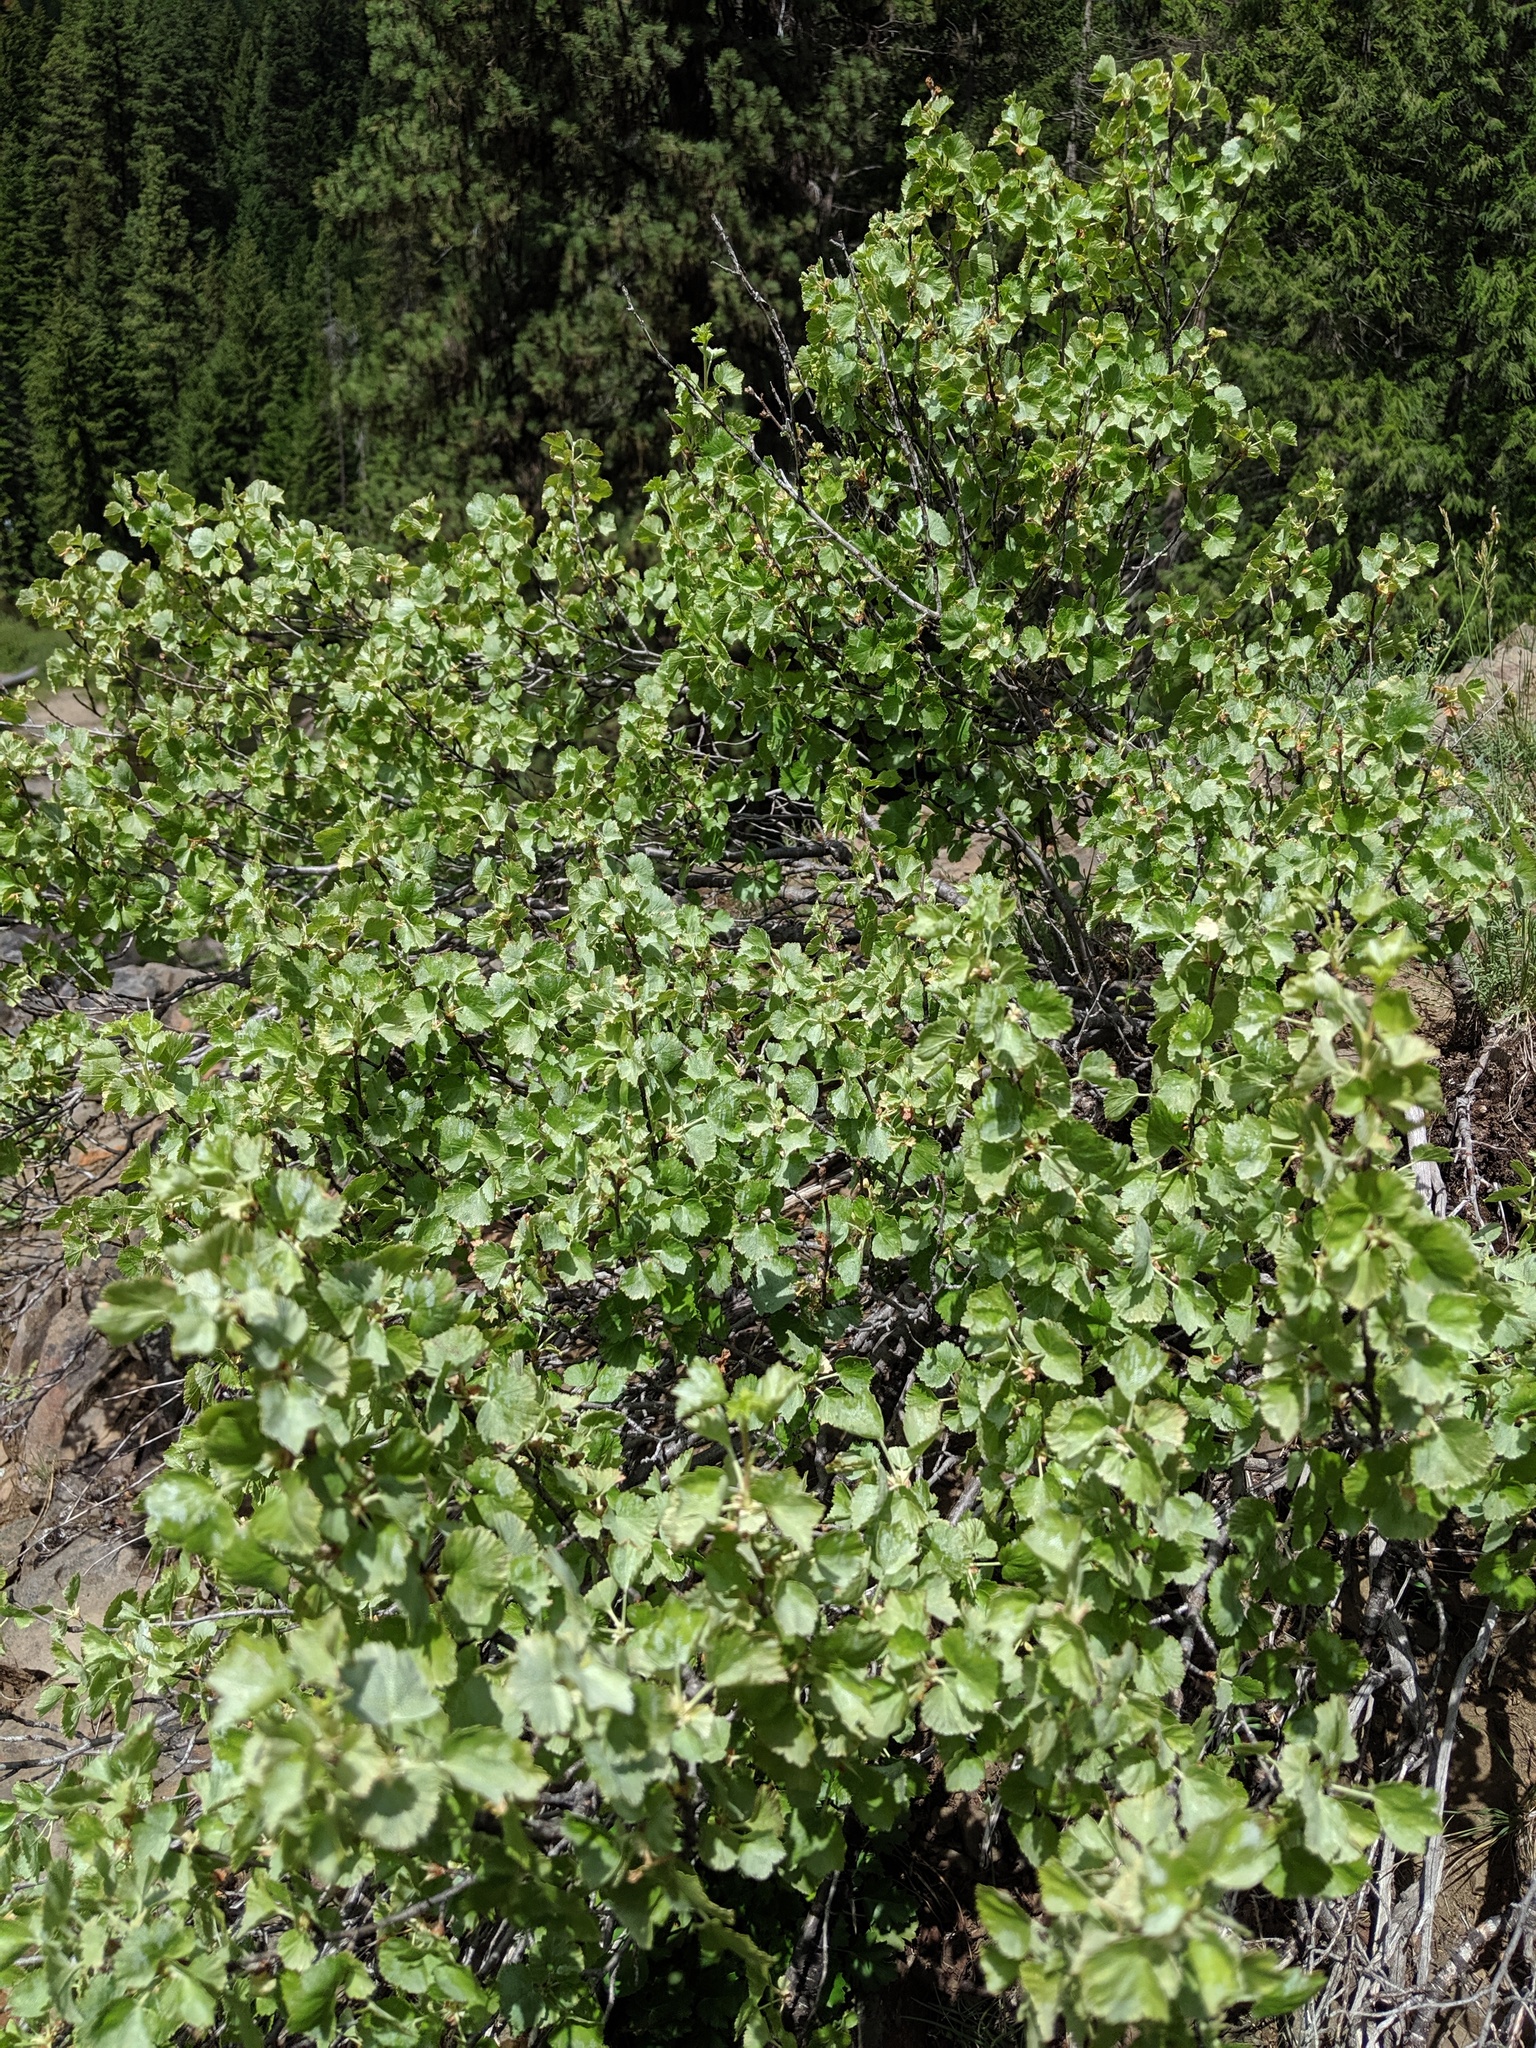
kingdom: Plantae
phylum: Tracheophyta
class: Magnoliopsida
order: Saxifragales
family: Grossulariaceae
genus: Ribes
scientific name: Ribes cereum
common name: Wax currant
